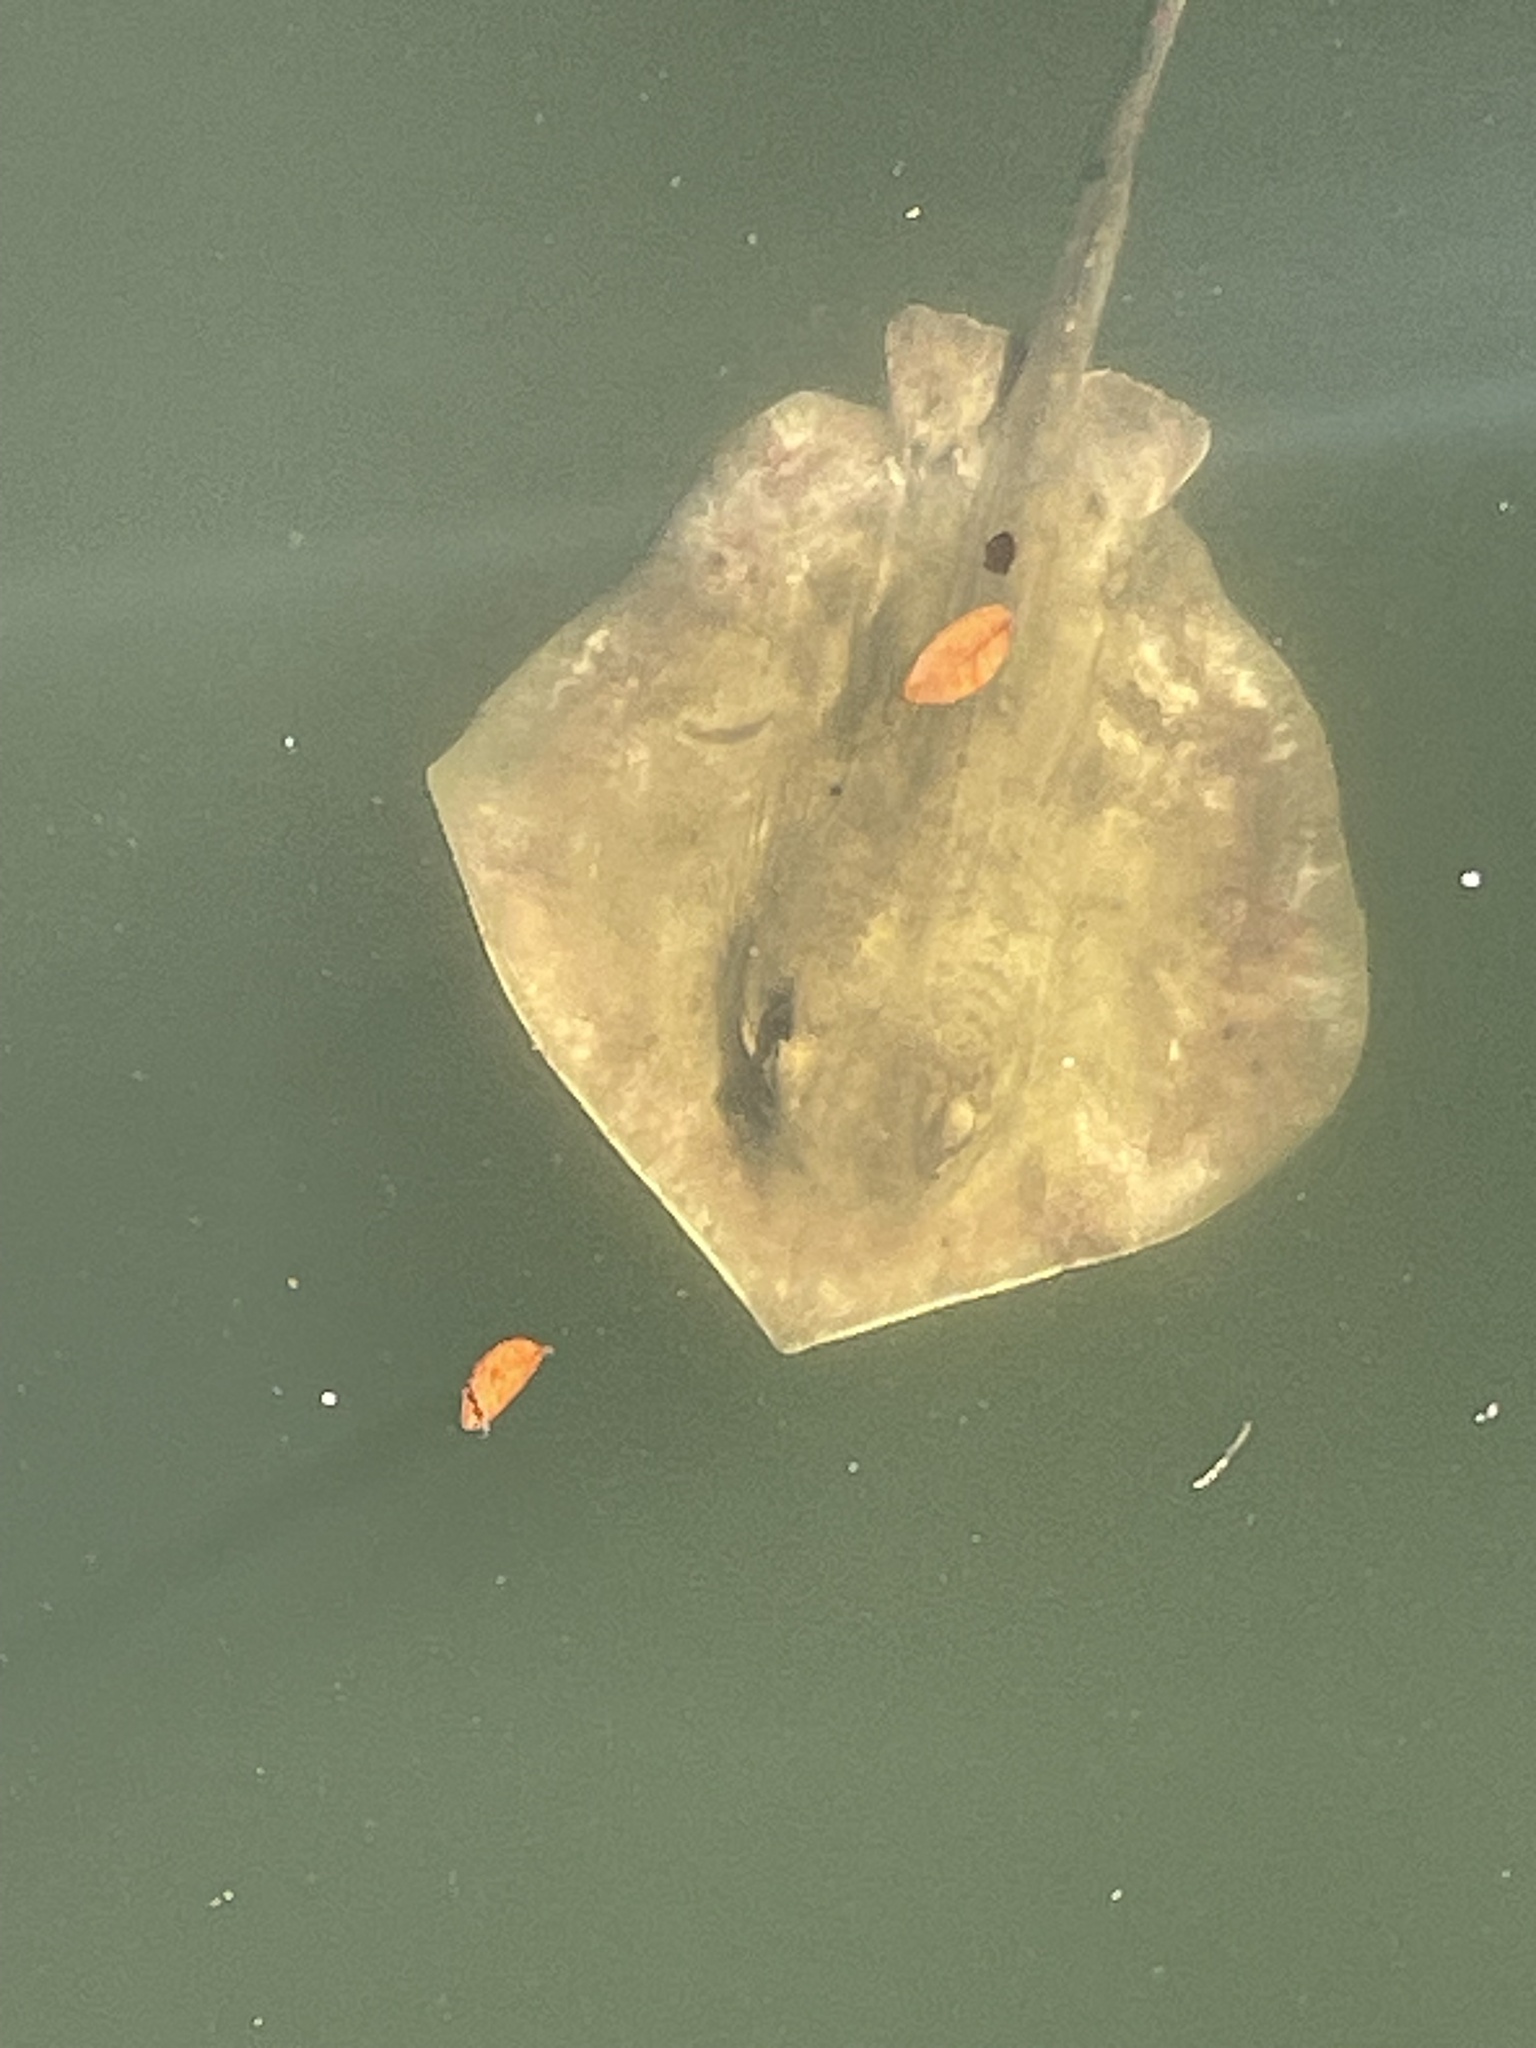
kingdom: Animalia
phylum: Chordata
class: Elasmobranchii
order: Myliobatiformes
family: Dasyatidae
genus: Hypanus
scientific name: Hypanus sabinus
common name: Atlantic stingray
